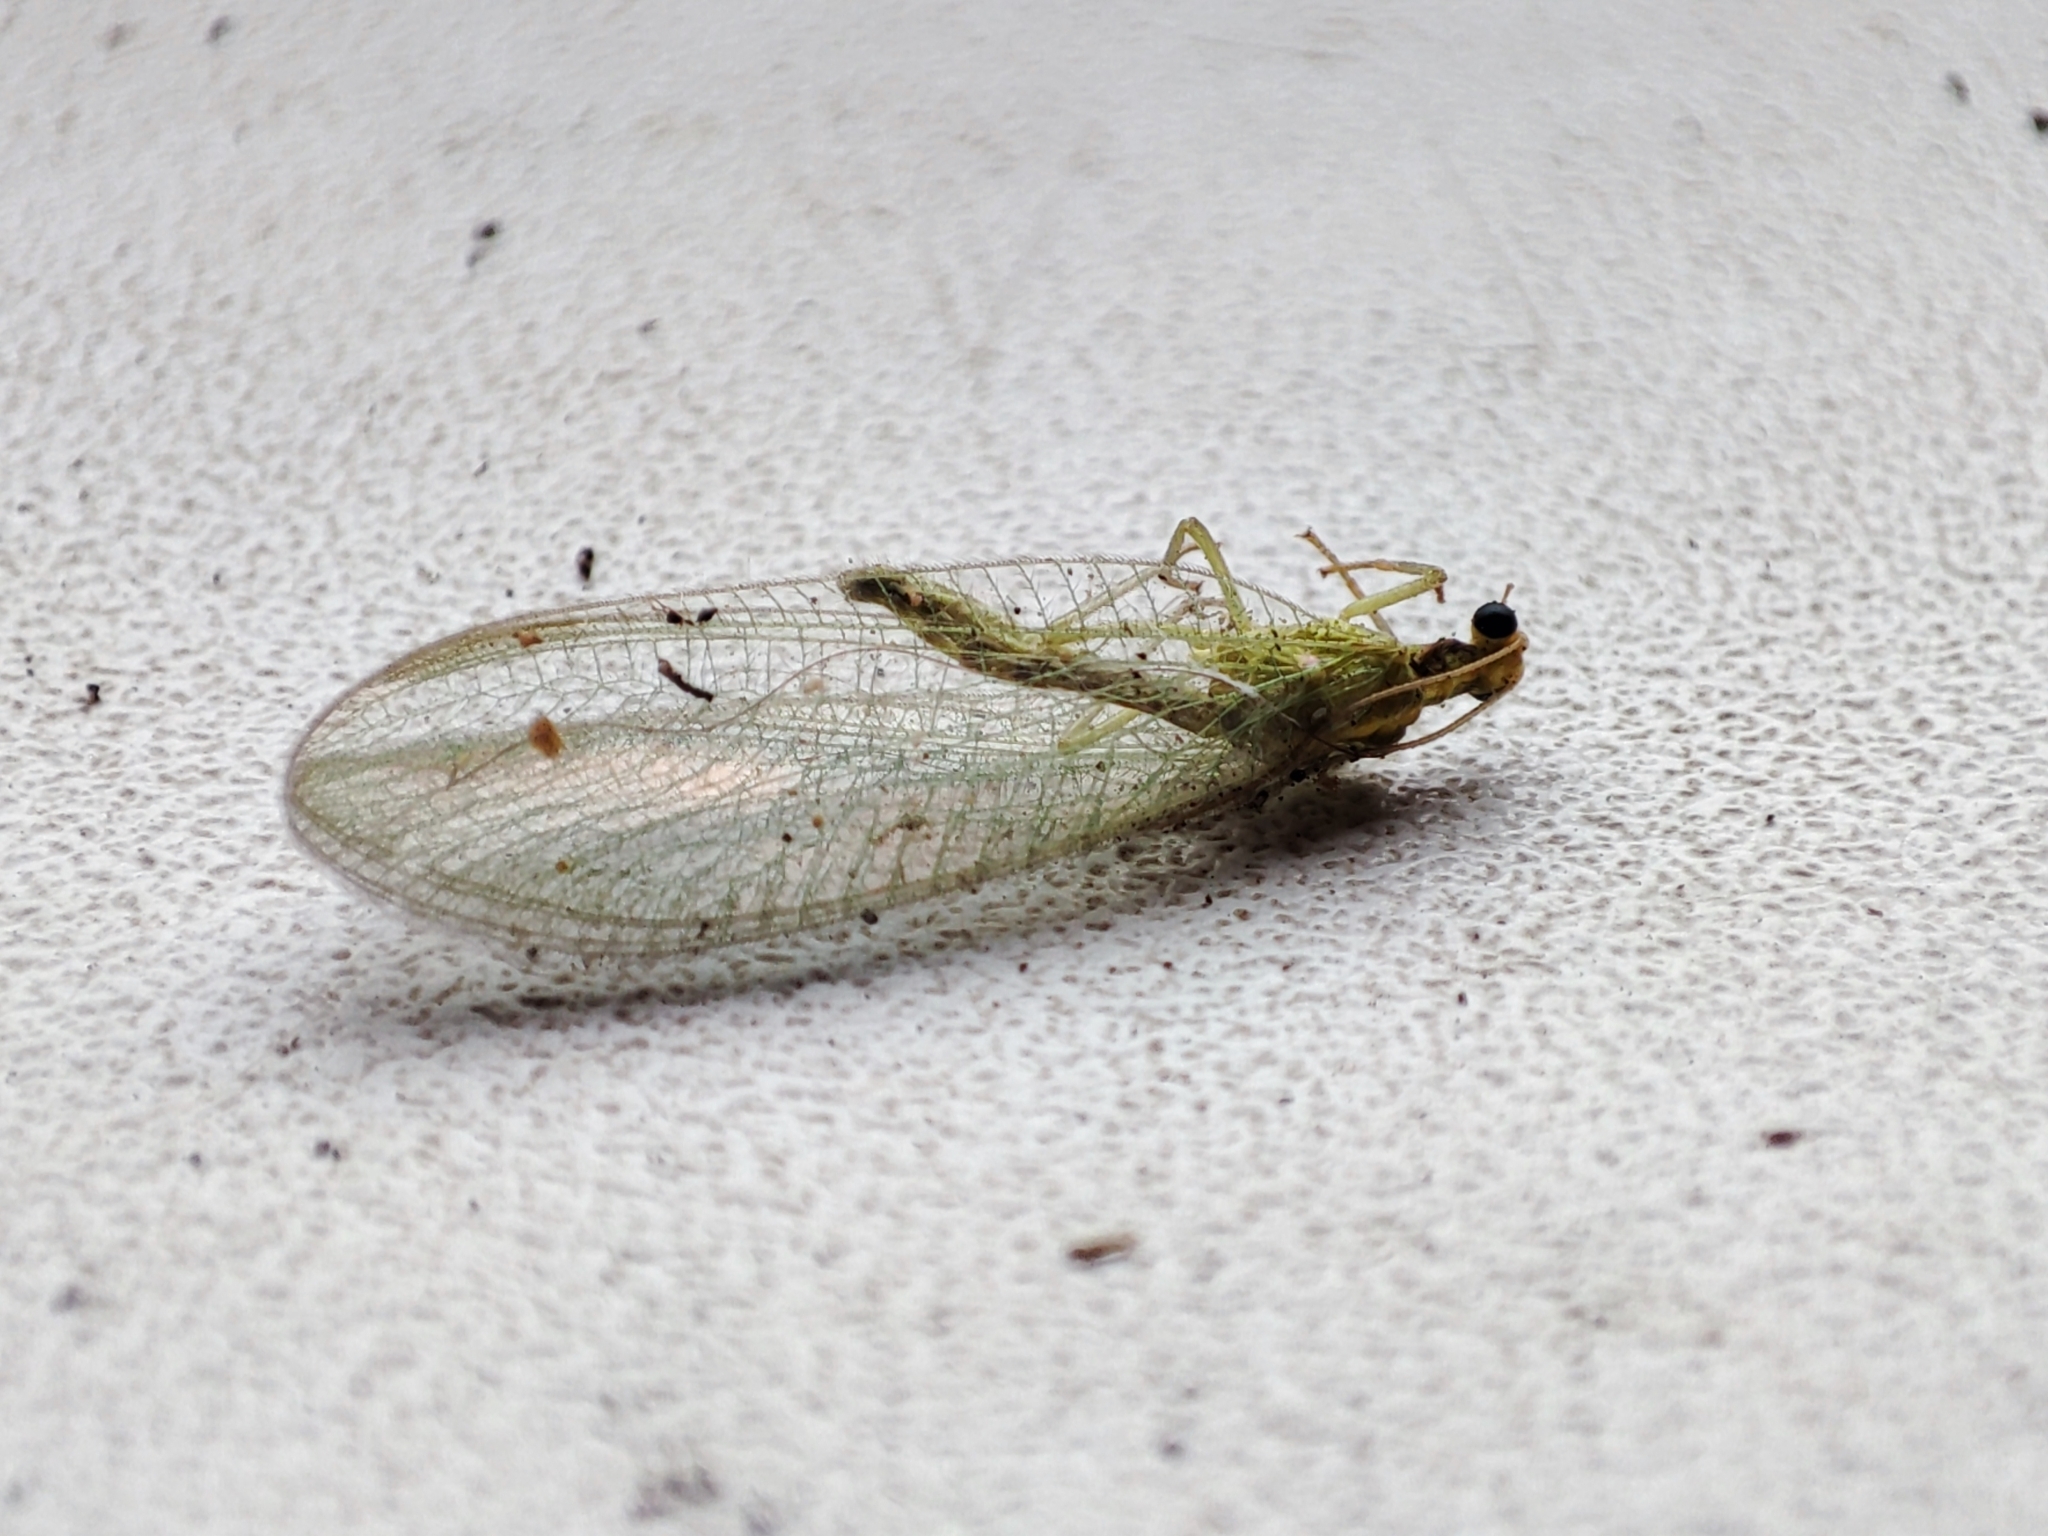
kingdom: Animalia
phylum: Arthropoda
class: Insecta
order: Neuroptera
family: Chrysopidae
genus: Chrysoperla
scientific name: Chrysoperla
